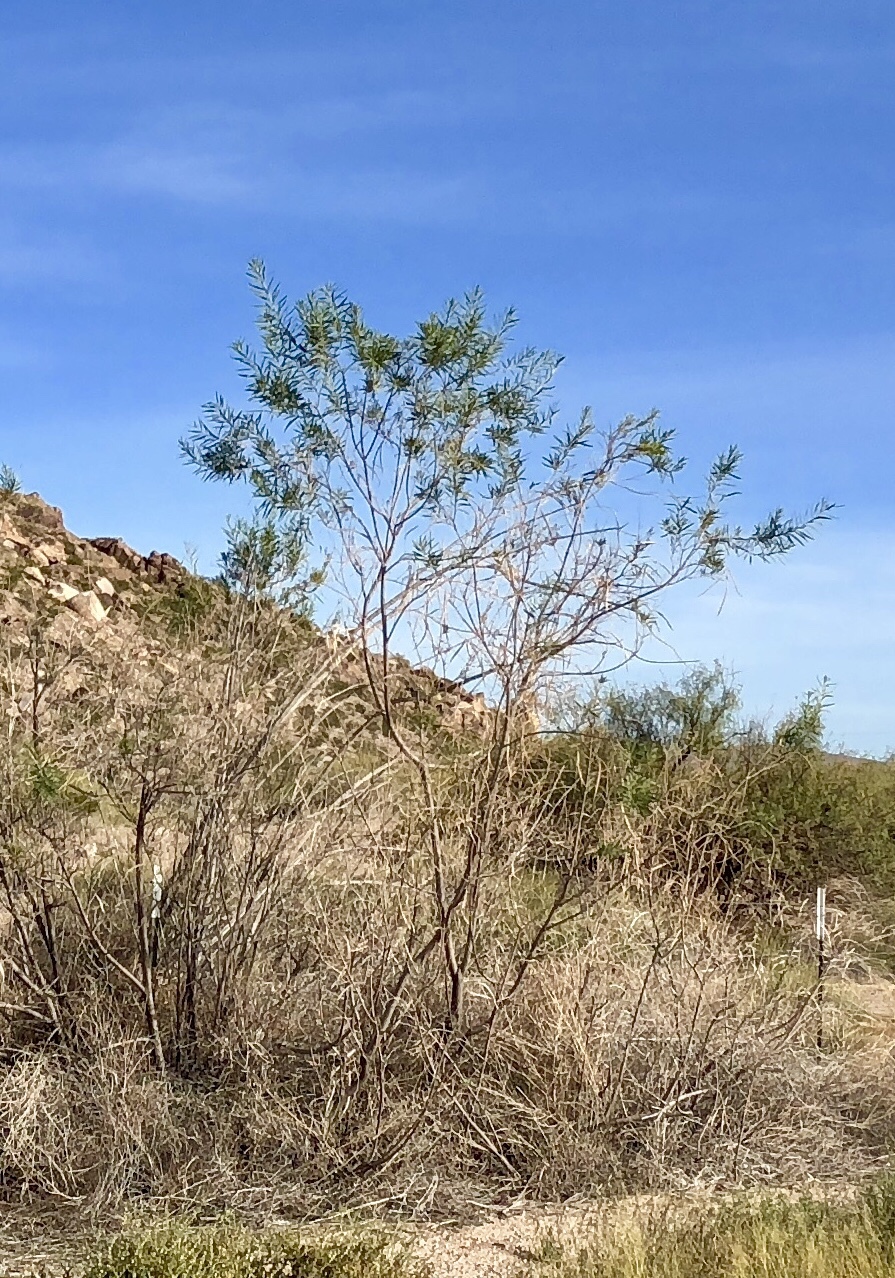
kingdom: Plantae
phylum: Tracheophyta
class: Magnoliopsida
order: Lamiales
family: Bignoniaceae
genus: Chilopsis
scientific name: Chilopsis linearis
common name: Desert-willow
